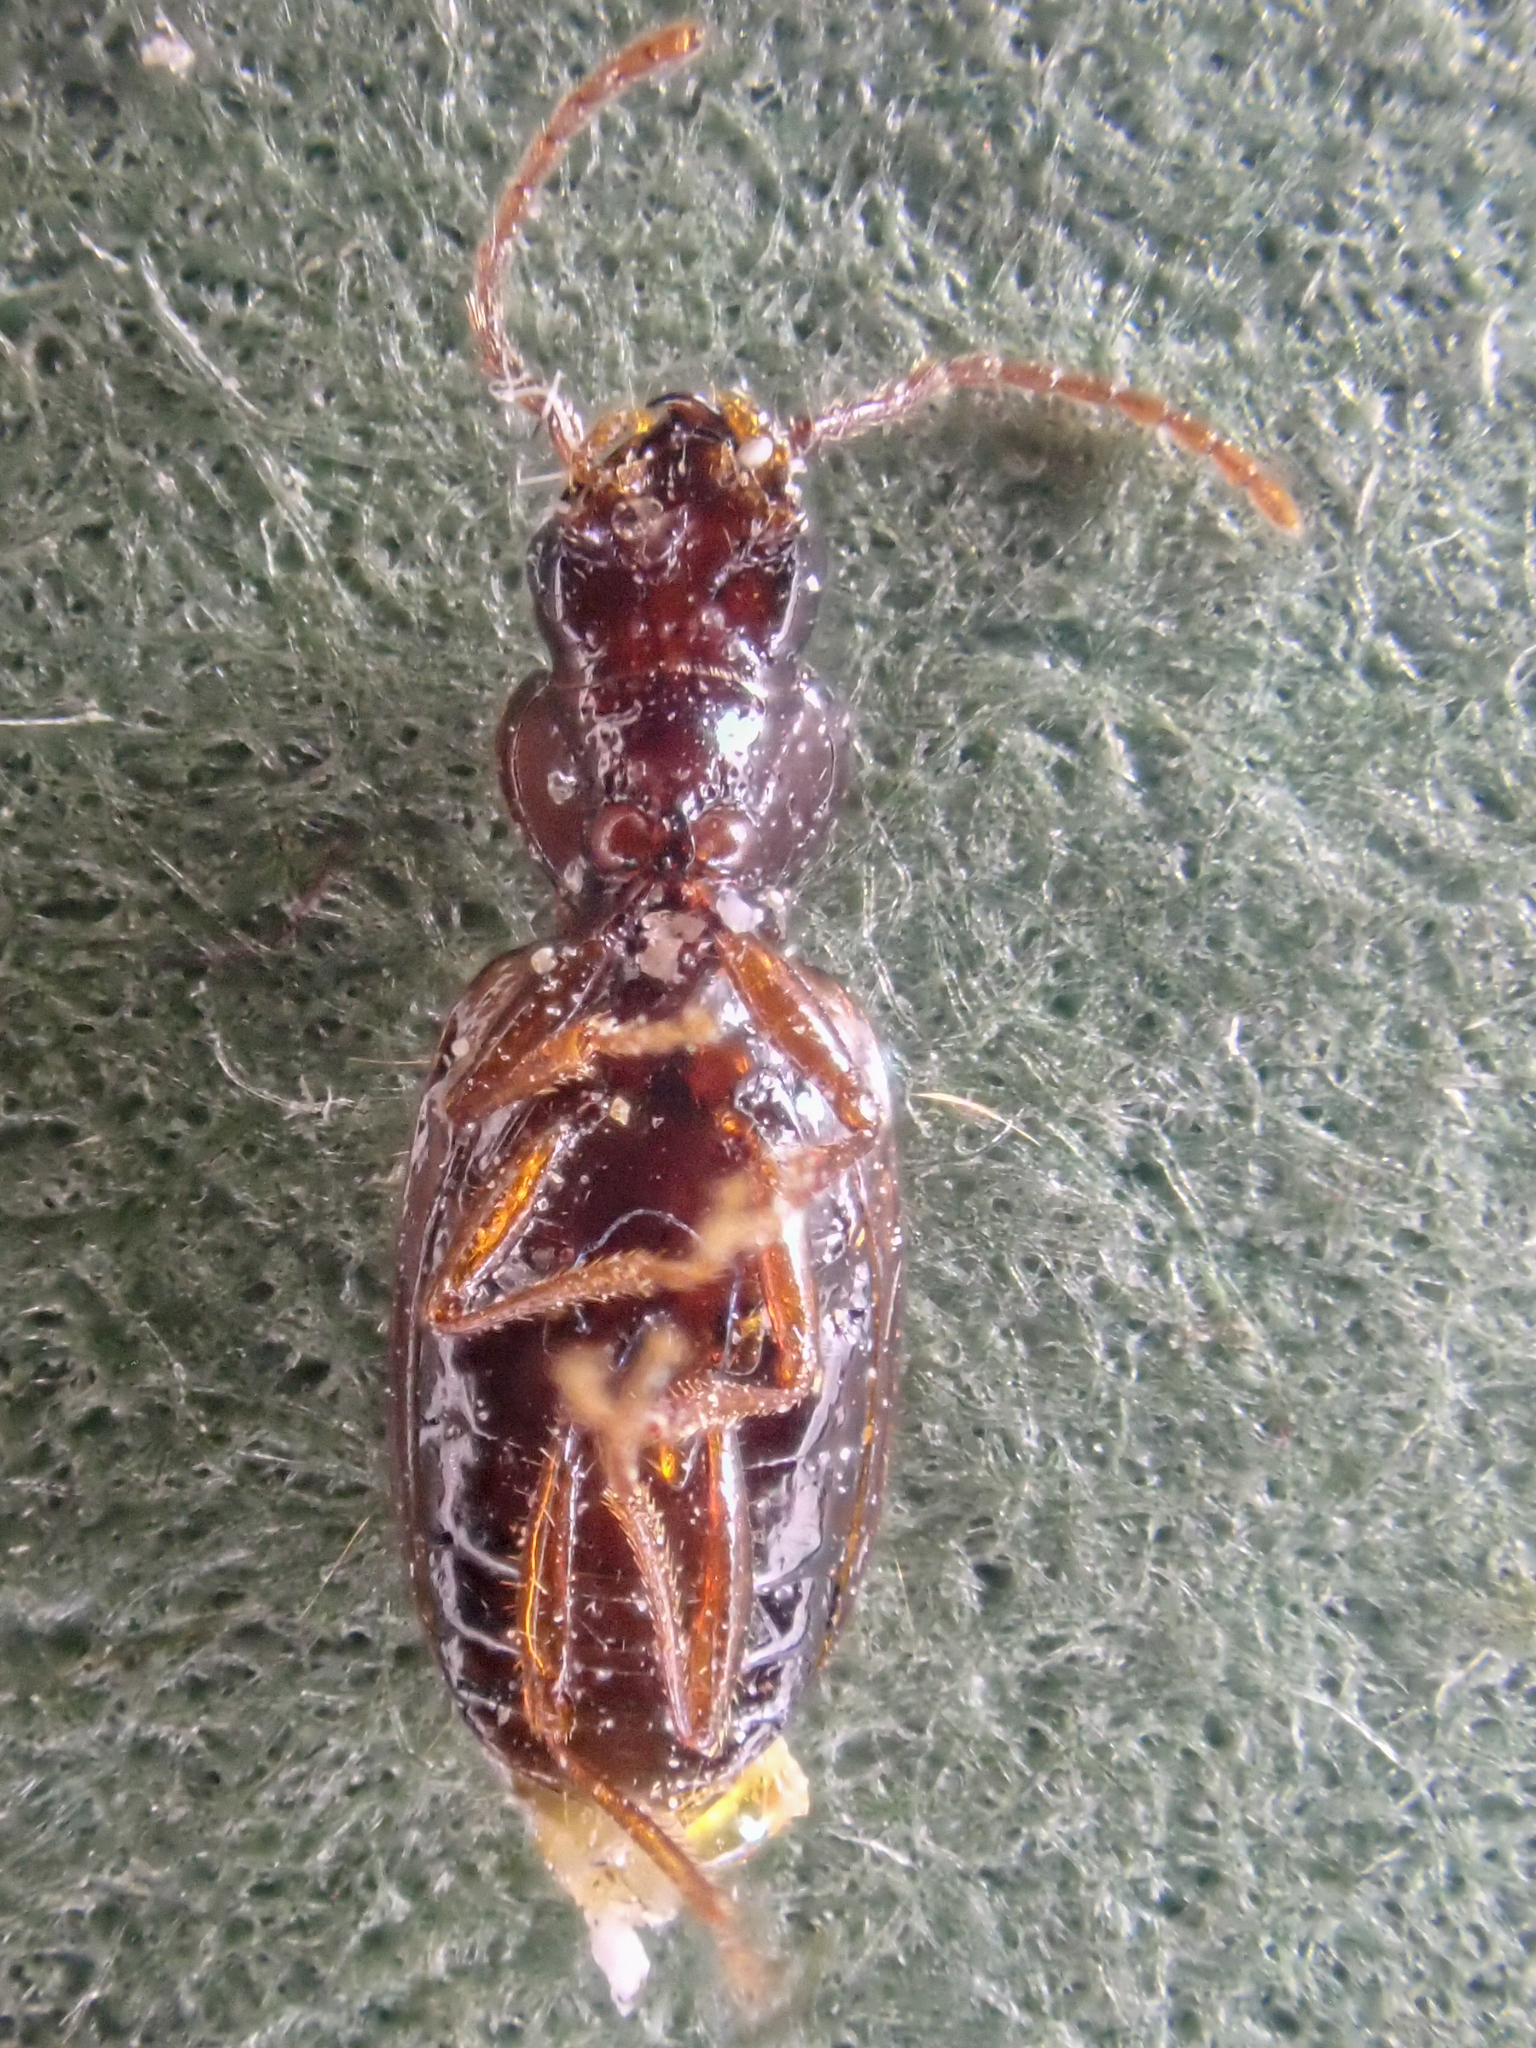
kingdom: Animalia
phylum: Arthropoda
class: Insecta
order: Coleoptera
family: Carabidae
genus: Phrypeus
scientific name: Phrypeus rickseckeri
